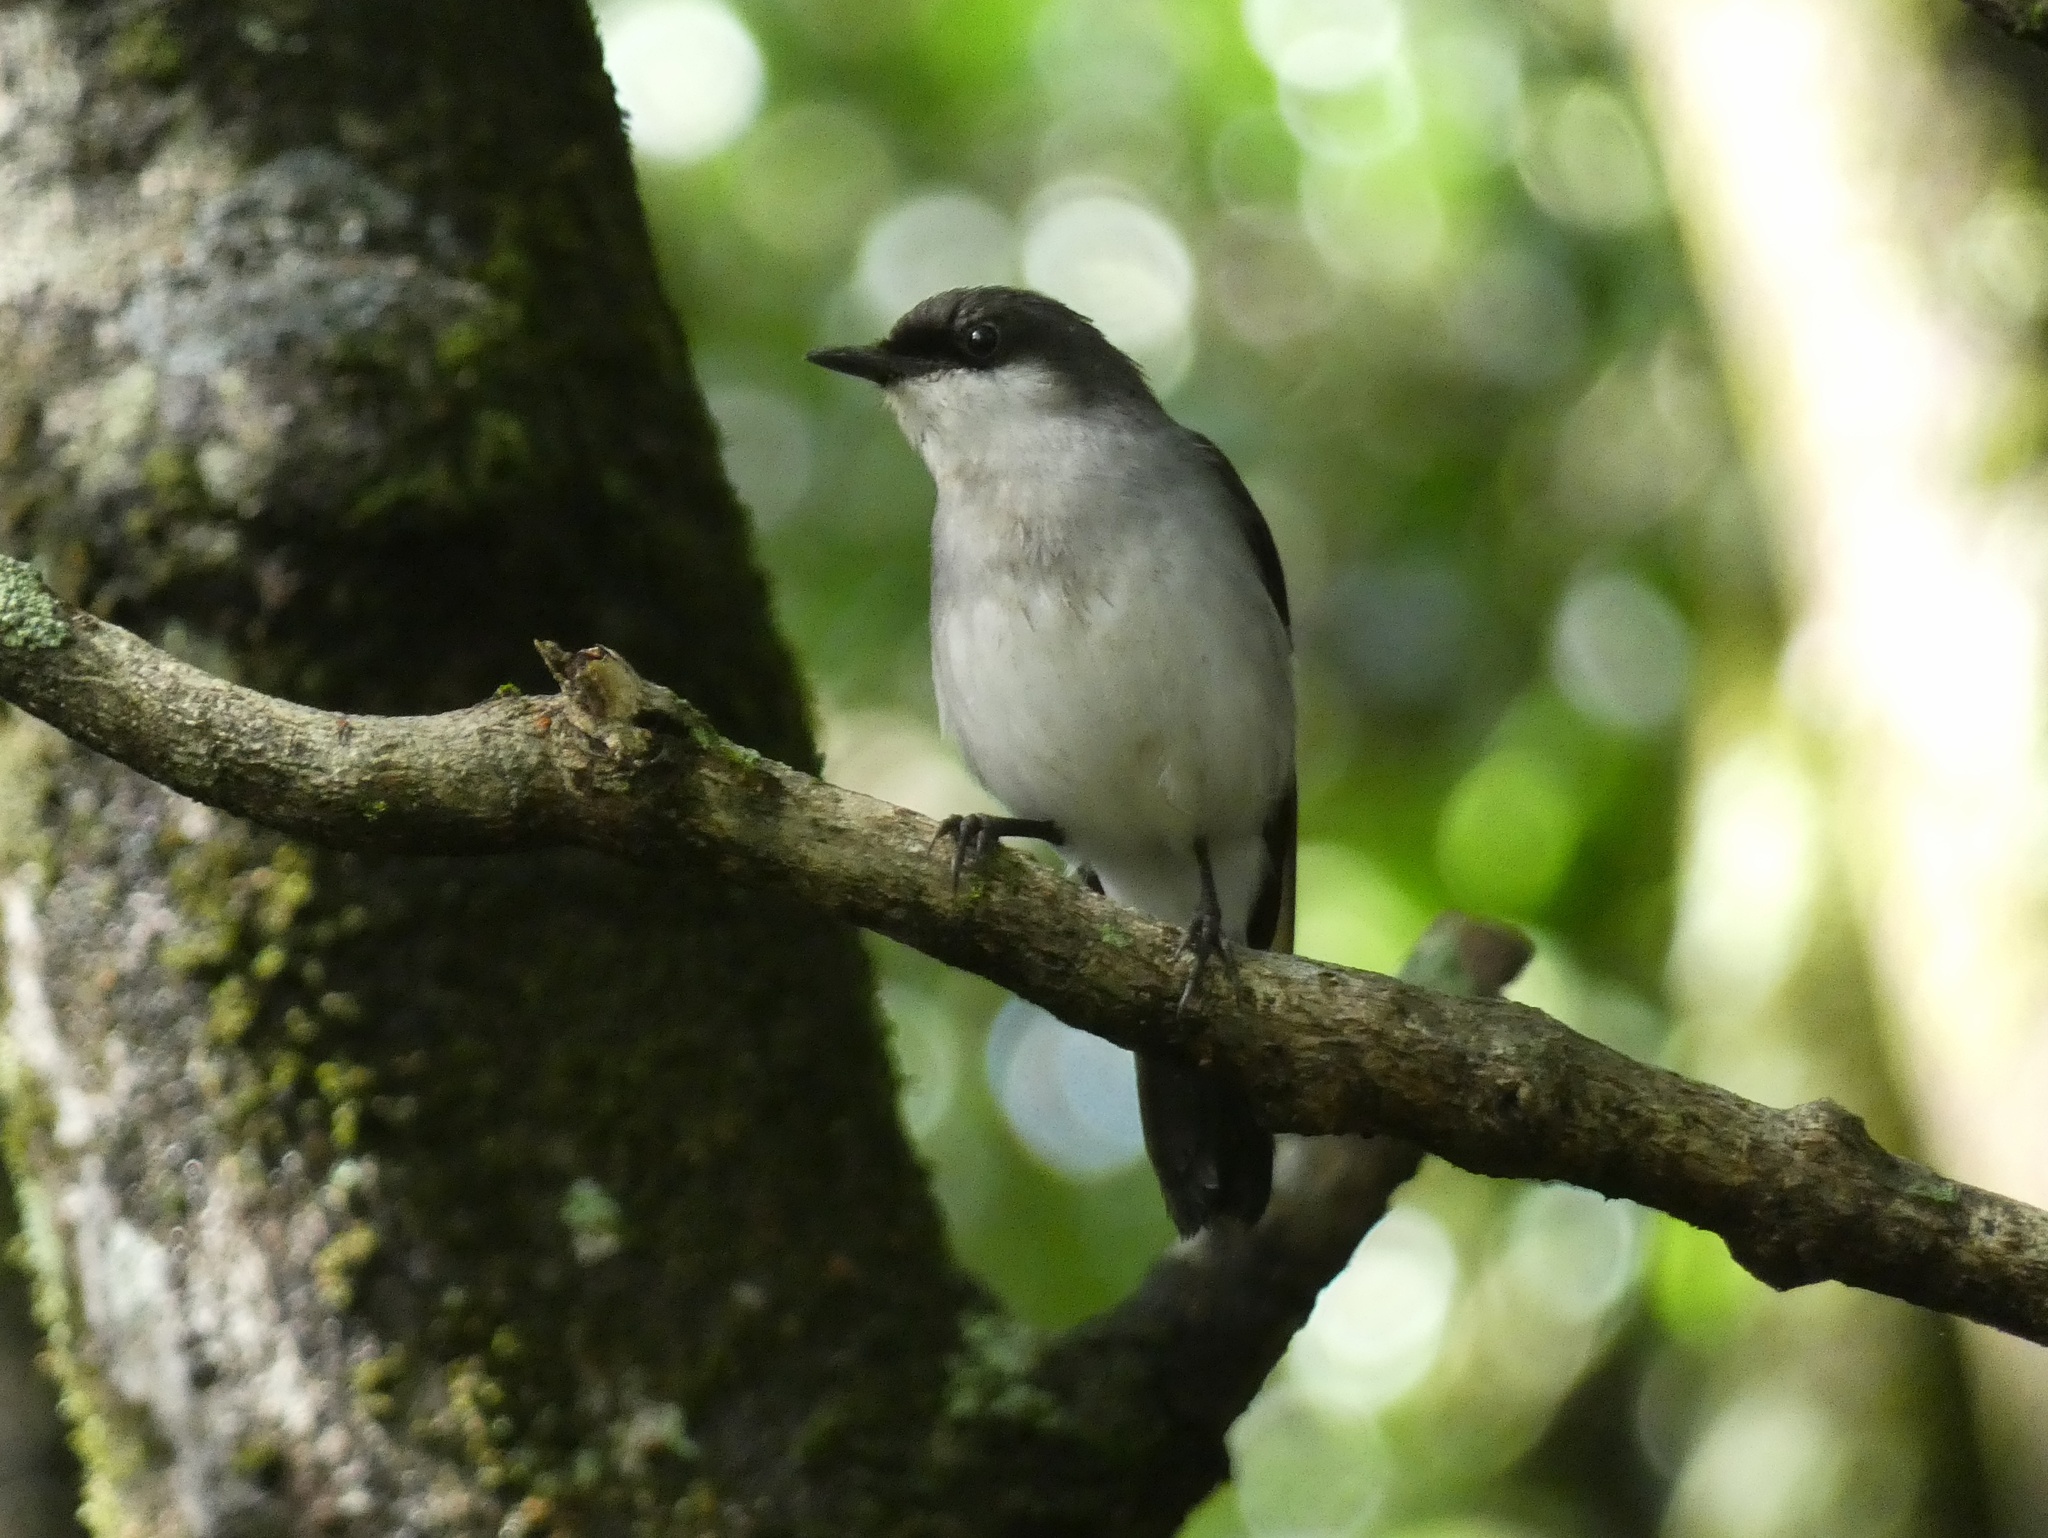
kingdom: Animalia
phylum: Chordata
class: Aves
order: Passeriformes
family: Petroicidae
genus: Melanodryas
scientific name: Melanodryas
